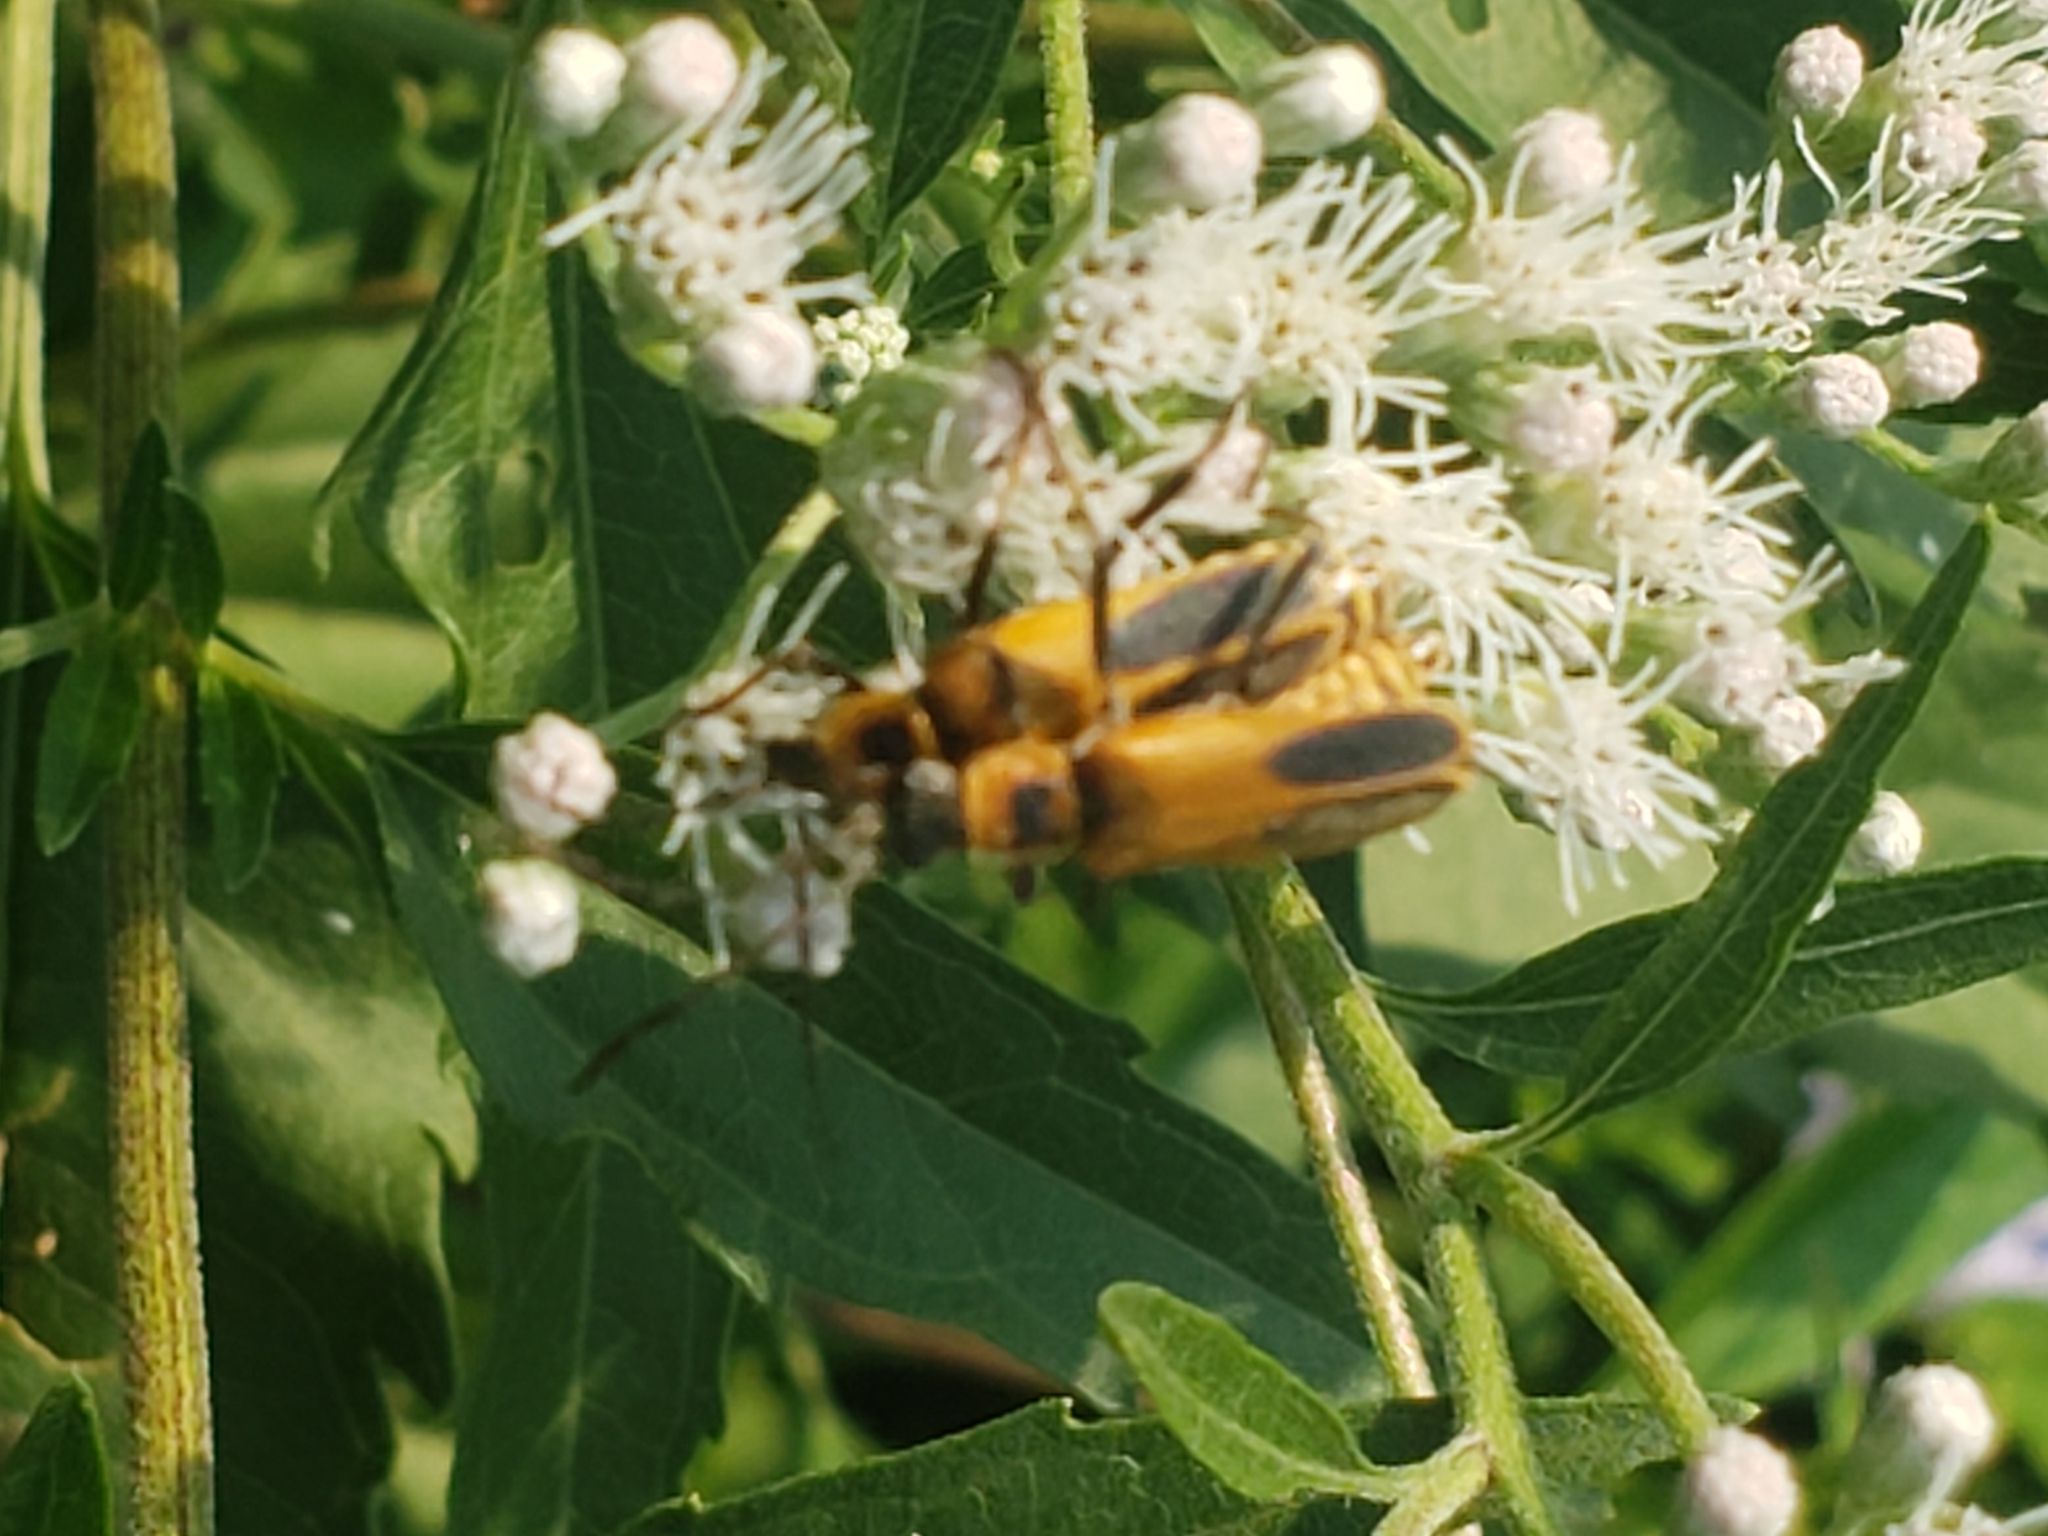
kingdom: Animalia
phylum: Arthropoda
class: Insecta
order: Coleoptera
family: Cantharidae
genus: Chauliognathus
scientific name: Chauliognathus pensylvanicus
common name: Goldenrod soldier beetle
